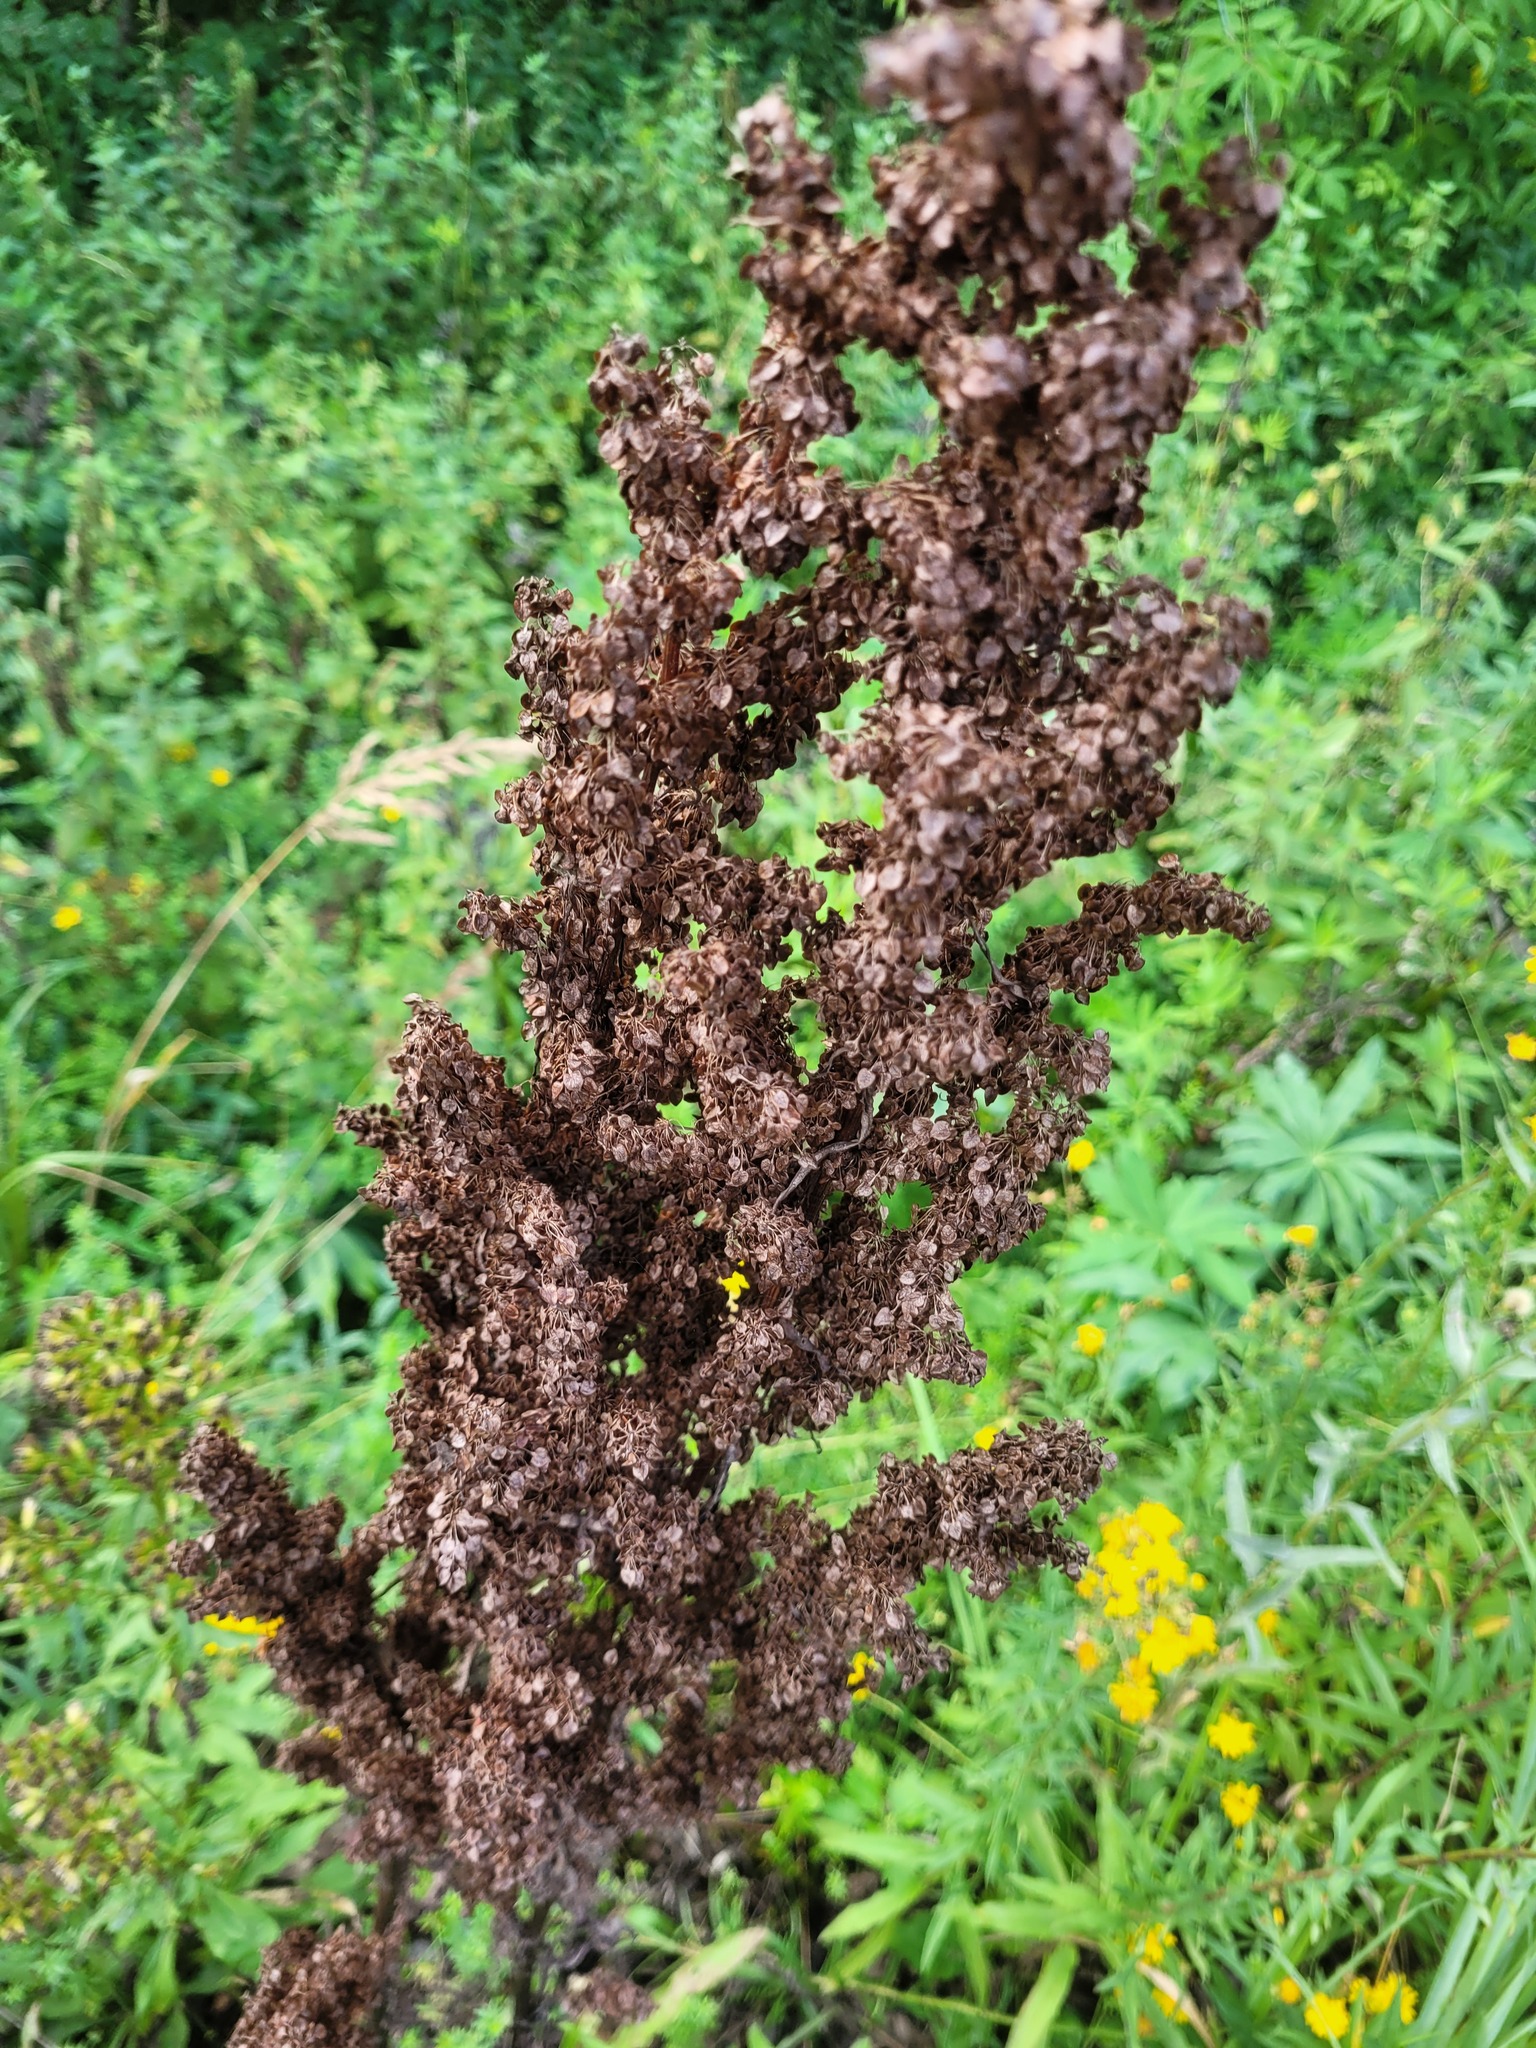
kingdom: Plantae
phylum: Tracheophyta
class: Magnoliopsida
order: Caryophyllales
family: Polygonaceae
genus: Rumex
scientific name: Rumex pseudonatronatus
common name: Field dock
